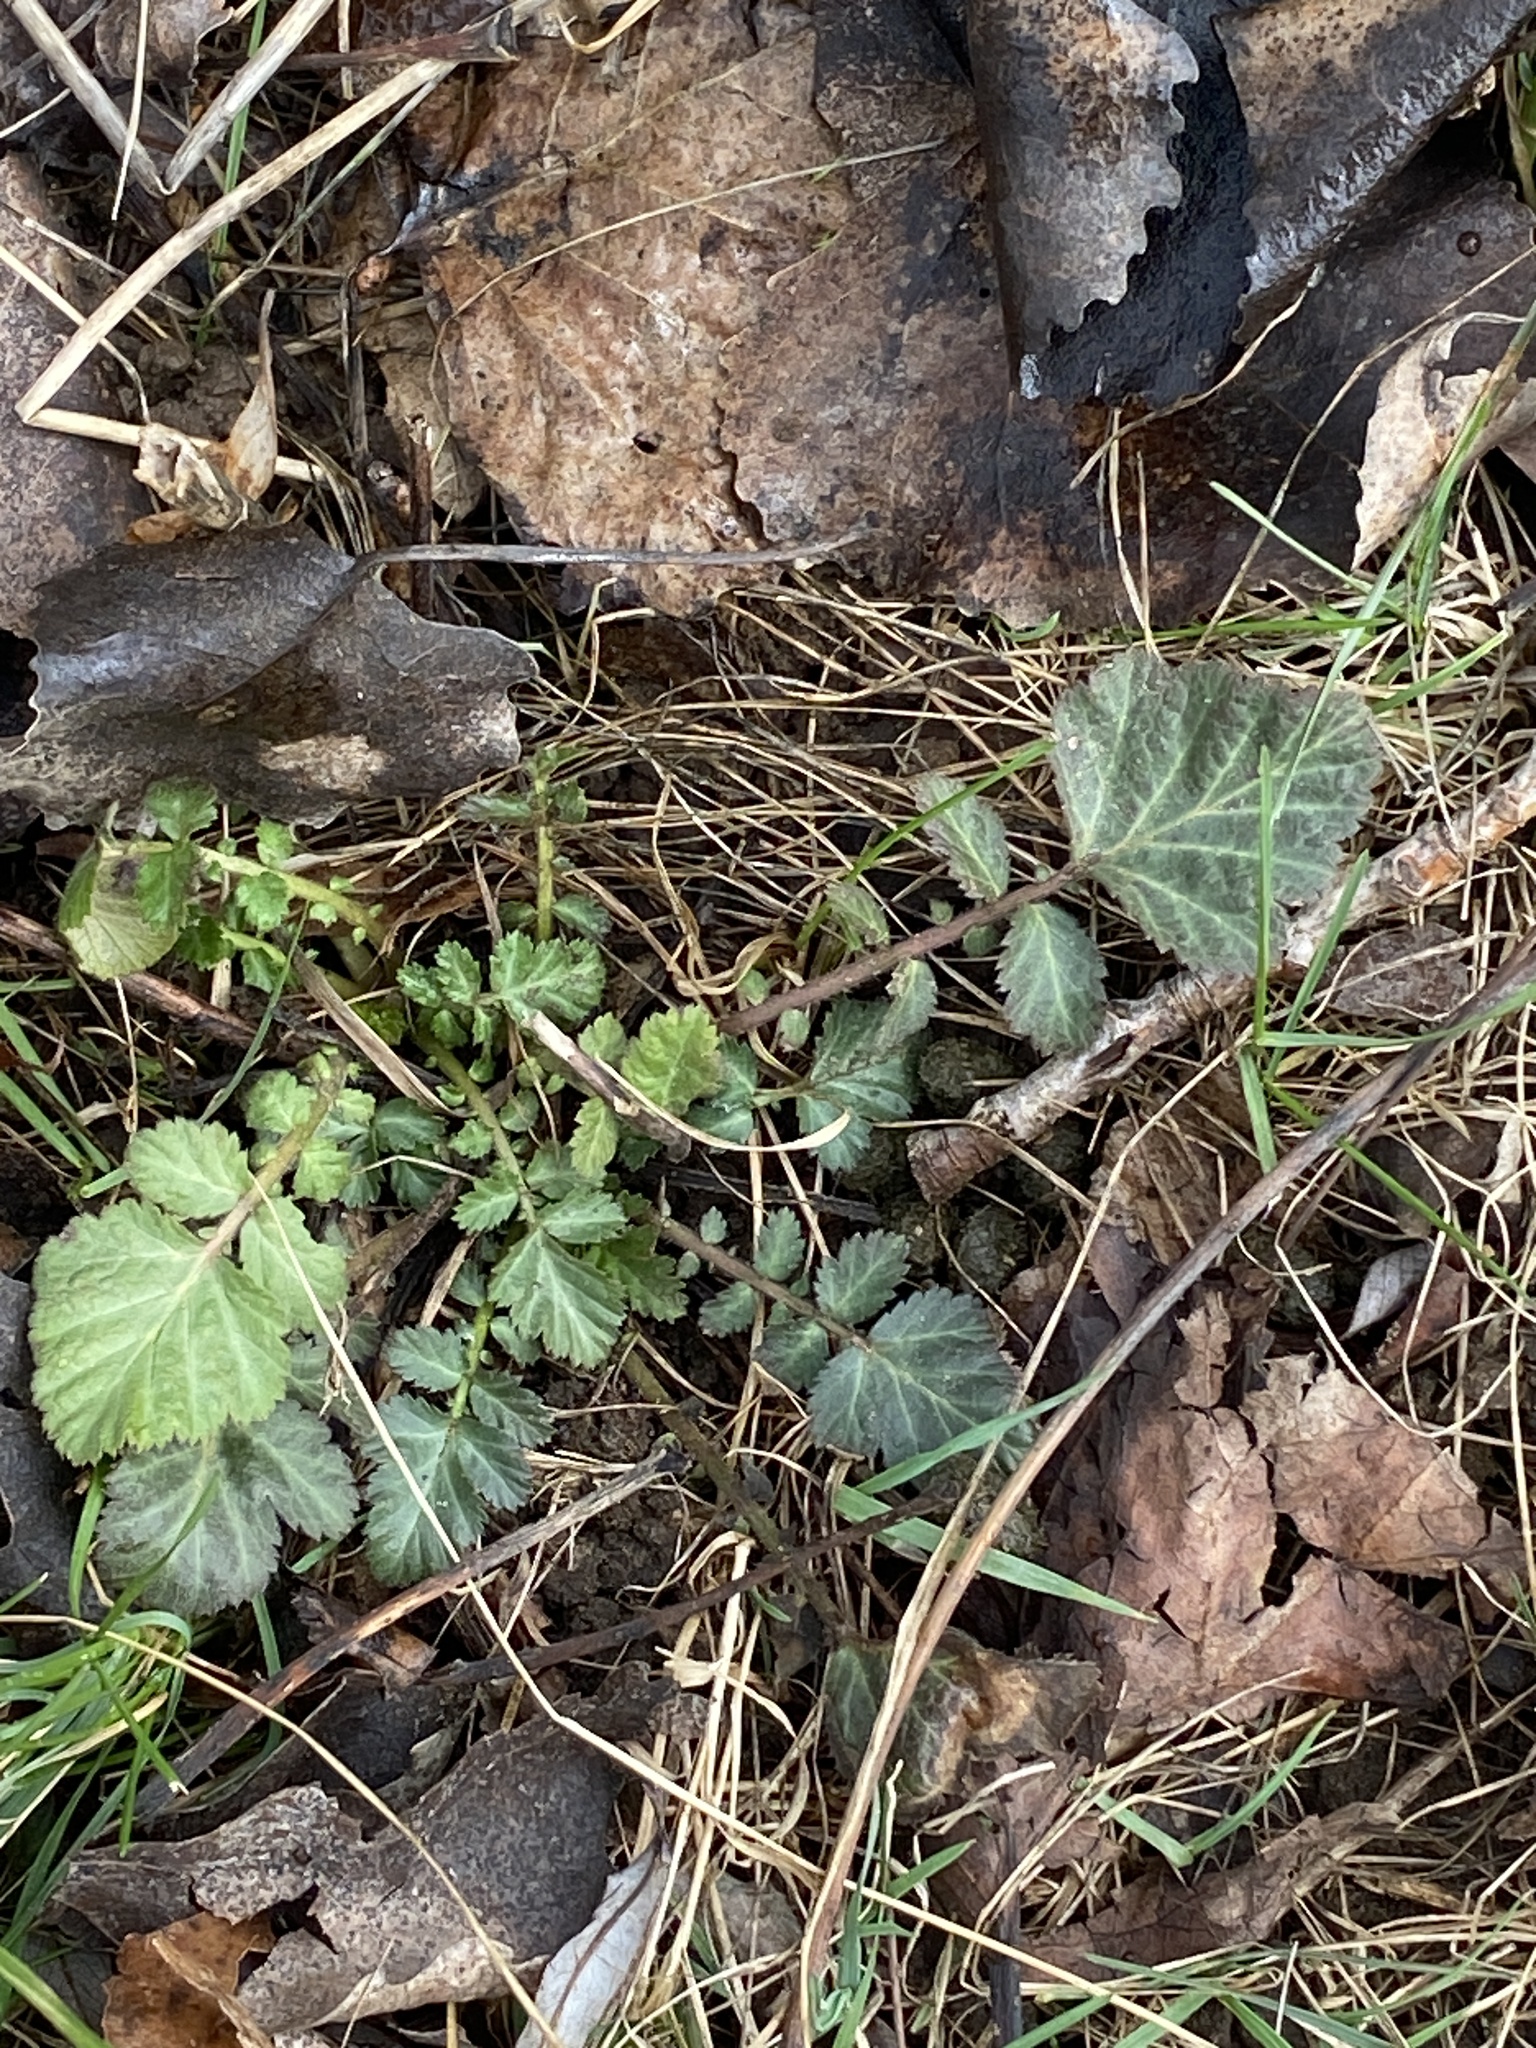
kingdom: Plantae
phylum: Tracheophyta
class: Magnoliopsida
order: Rosales
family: Rosaceae
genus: Geum
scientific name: Geum canadense
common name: White avens
